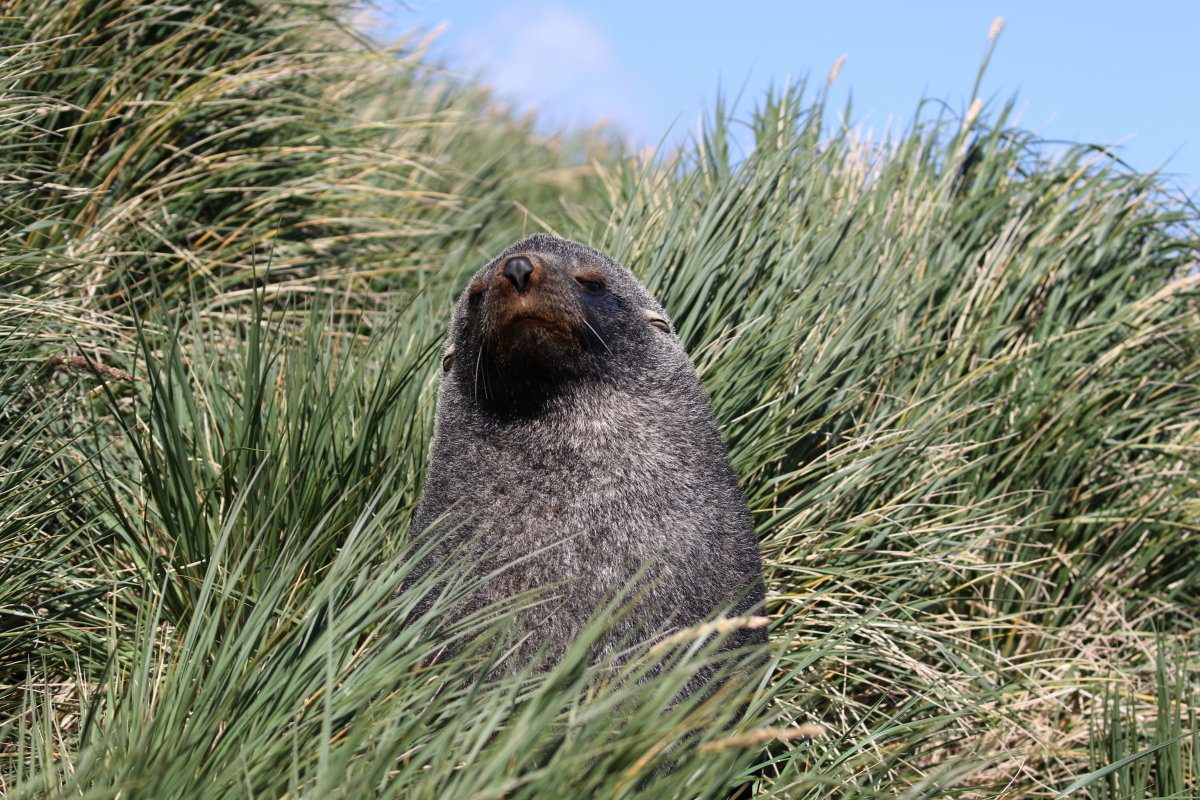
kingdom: Animalia
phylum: Chordata
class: Mammalia
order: Carnivora
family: Otariidae
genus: Arctocephalus
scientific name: Arctocephalus gazella
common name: Antarctic fur seal
